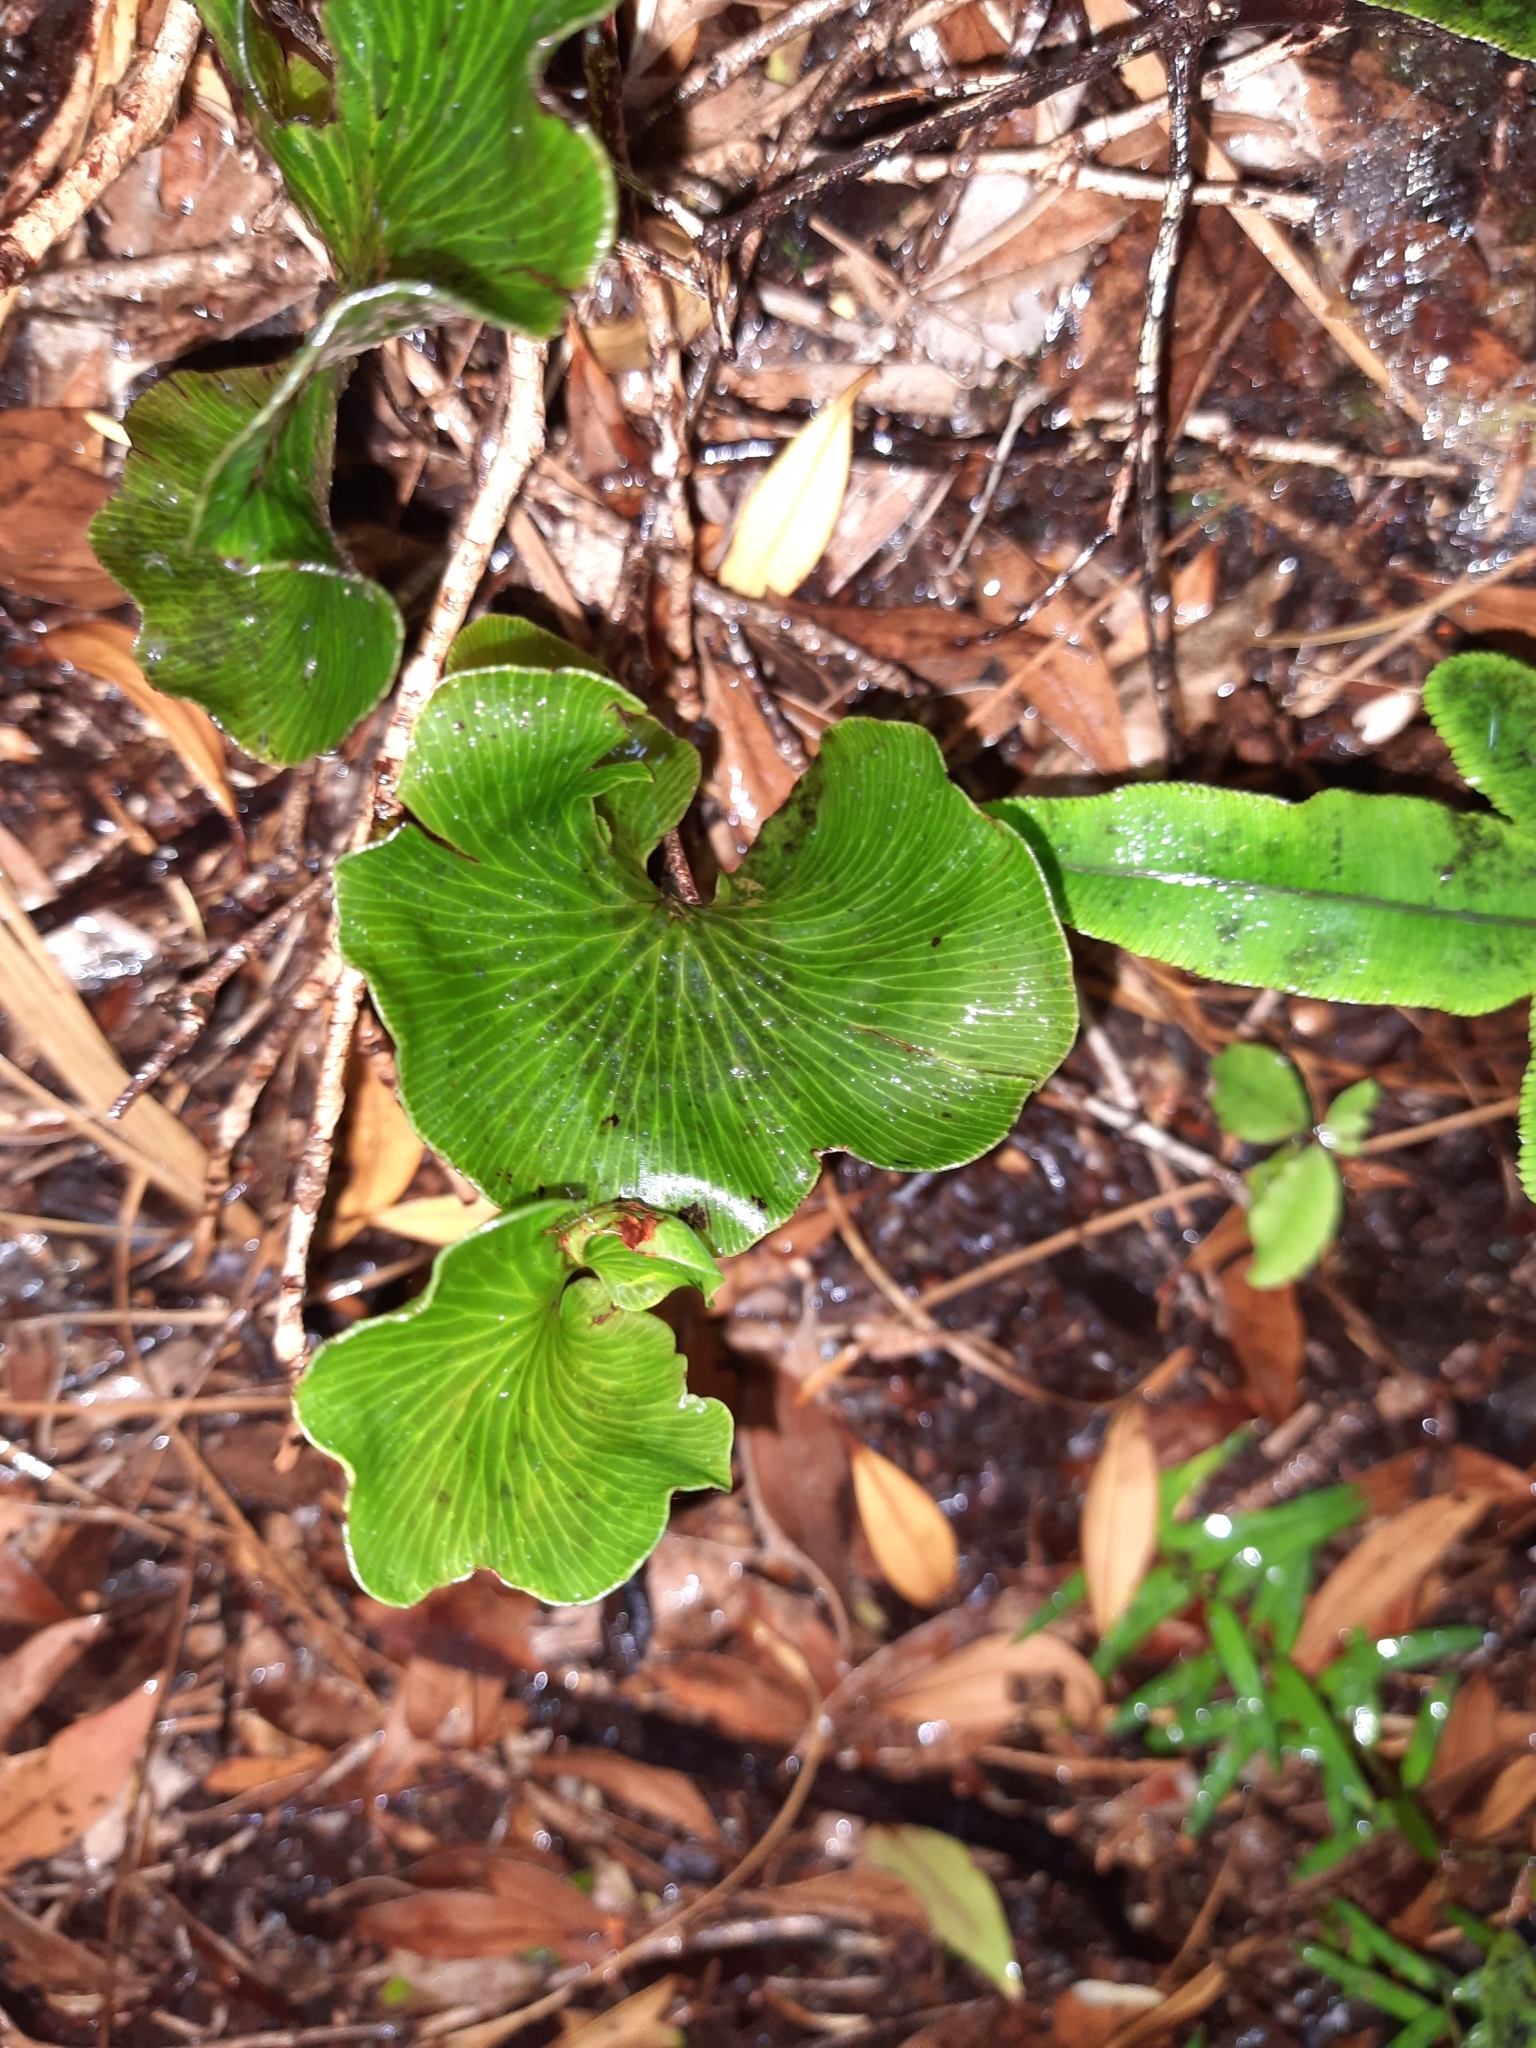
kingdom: Plantae
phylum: Tracheophyta
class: Polypodiopsida
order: Hymenophyllales
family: Hymenophyllaceae
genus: Hymenophyllum
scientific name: Hymenophyllum nephrophyllum
